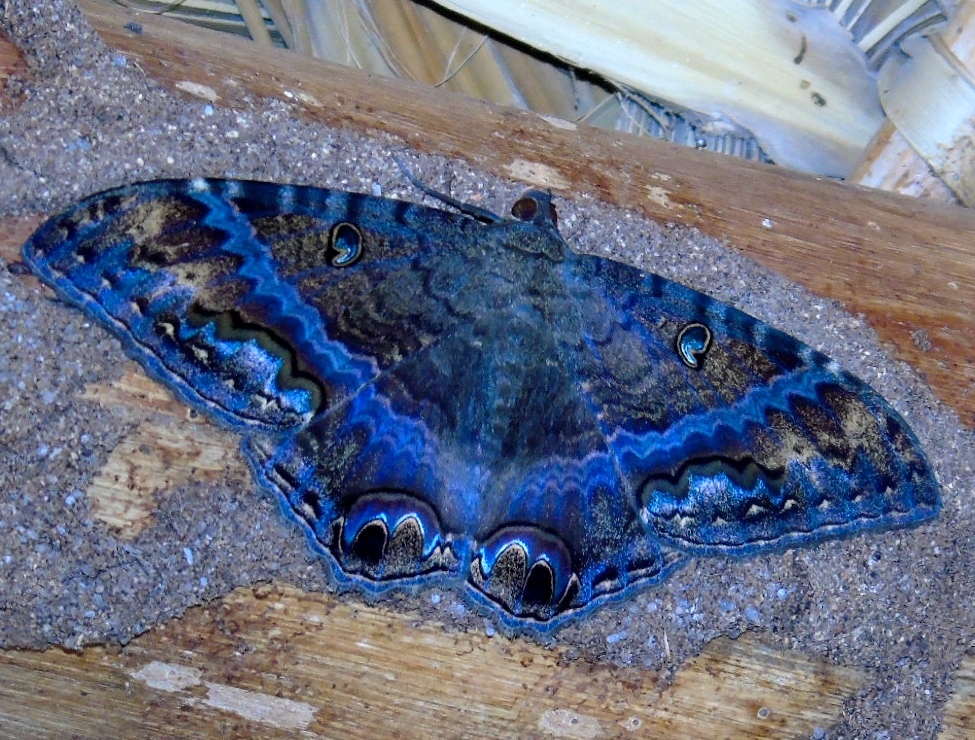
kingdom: Animalia
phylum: Arthropoda
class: Insecta
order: Lepidoptera
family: Erebidae
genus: Ascalapha
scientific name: Ascalapha odorata
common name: Black witch
